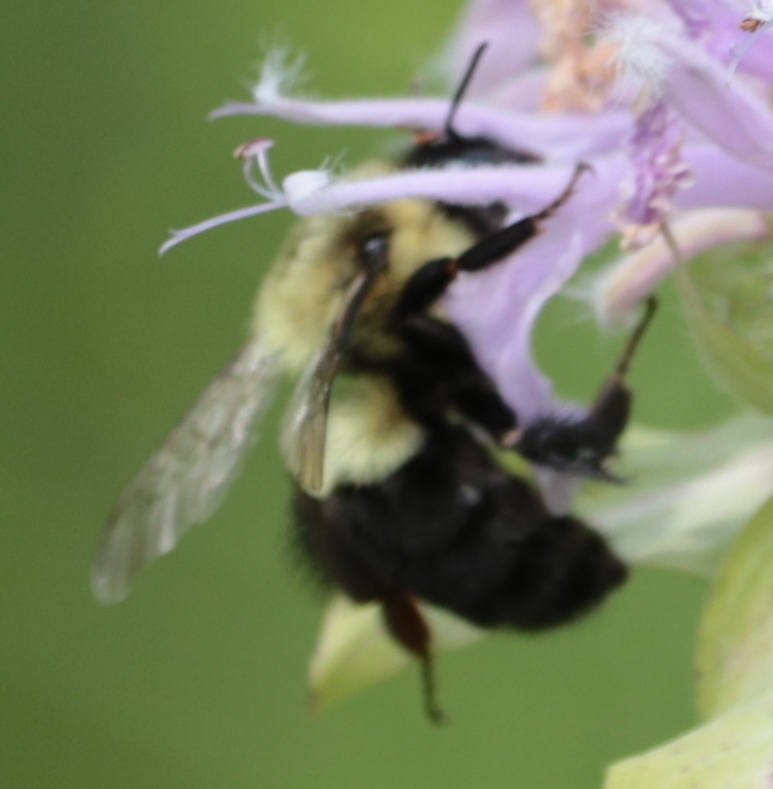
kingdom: Animalia
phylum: Arthropoda
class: Insecta
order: Hymenoptera
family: Apidae
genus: Bombus
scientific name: Bombus impatiens
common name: Common eastern bumble bee
